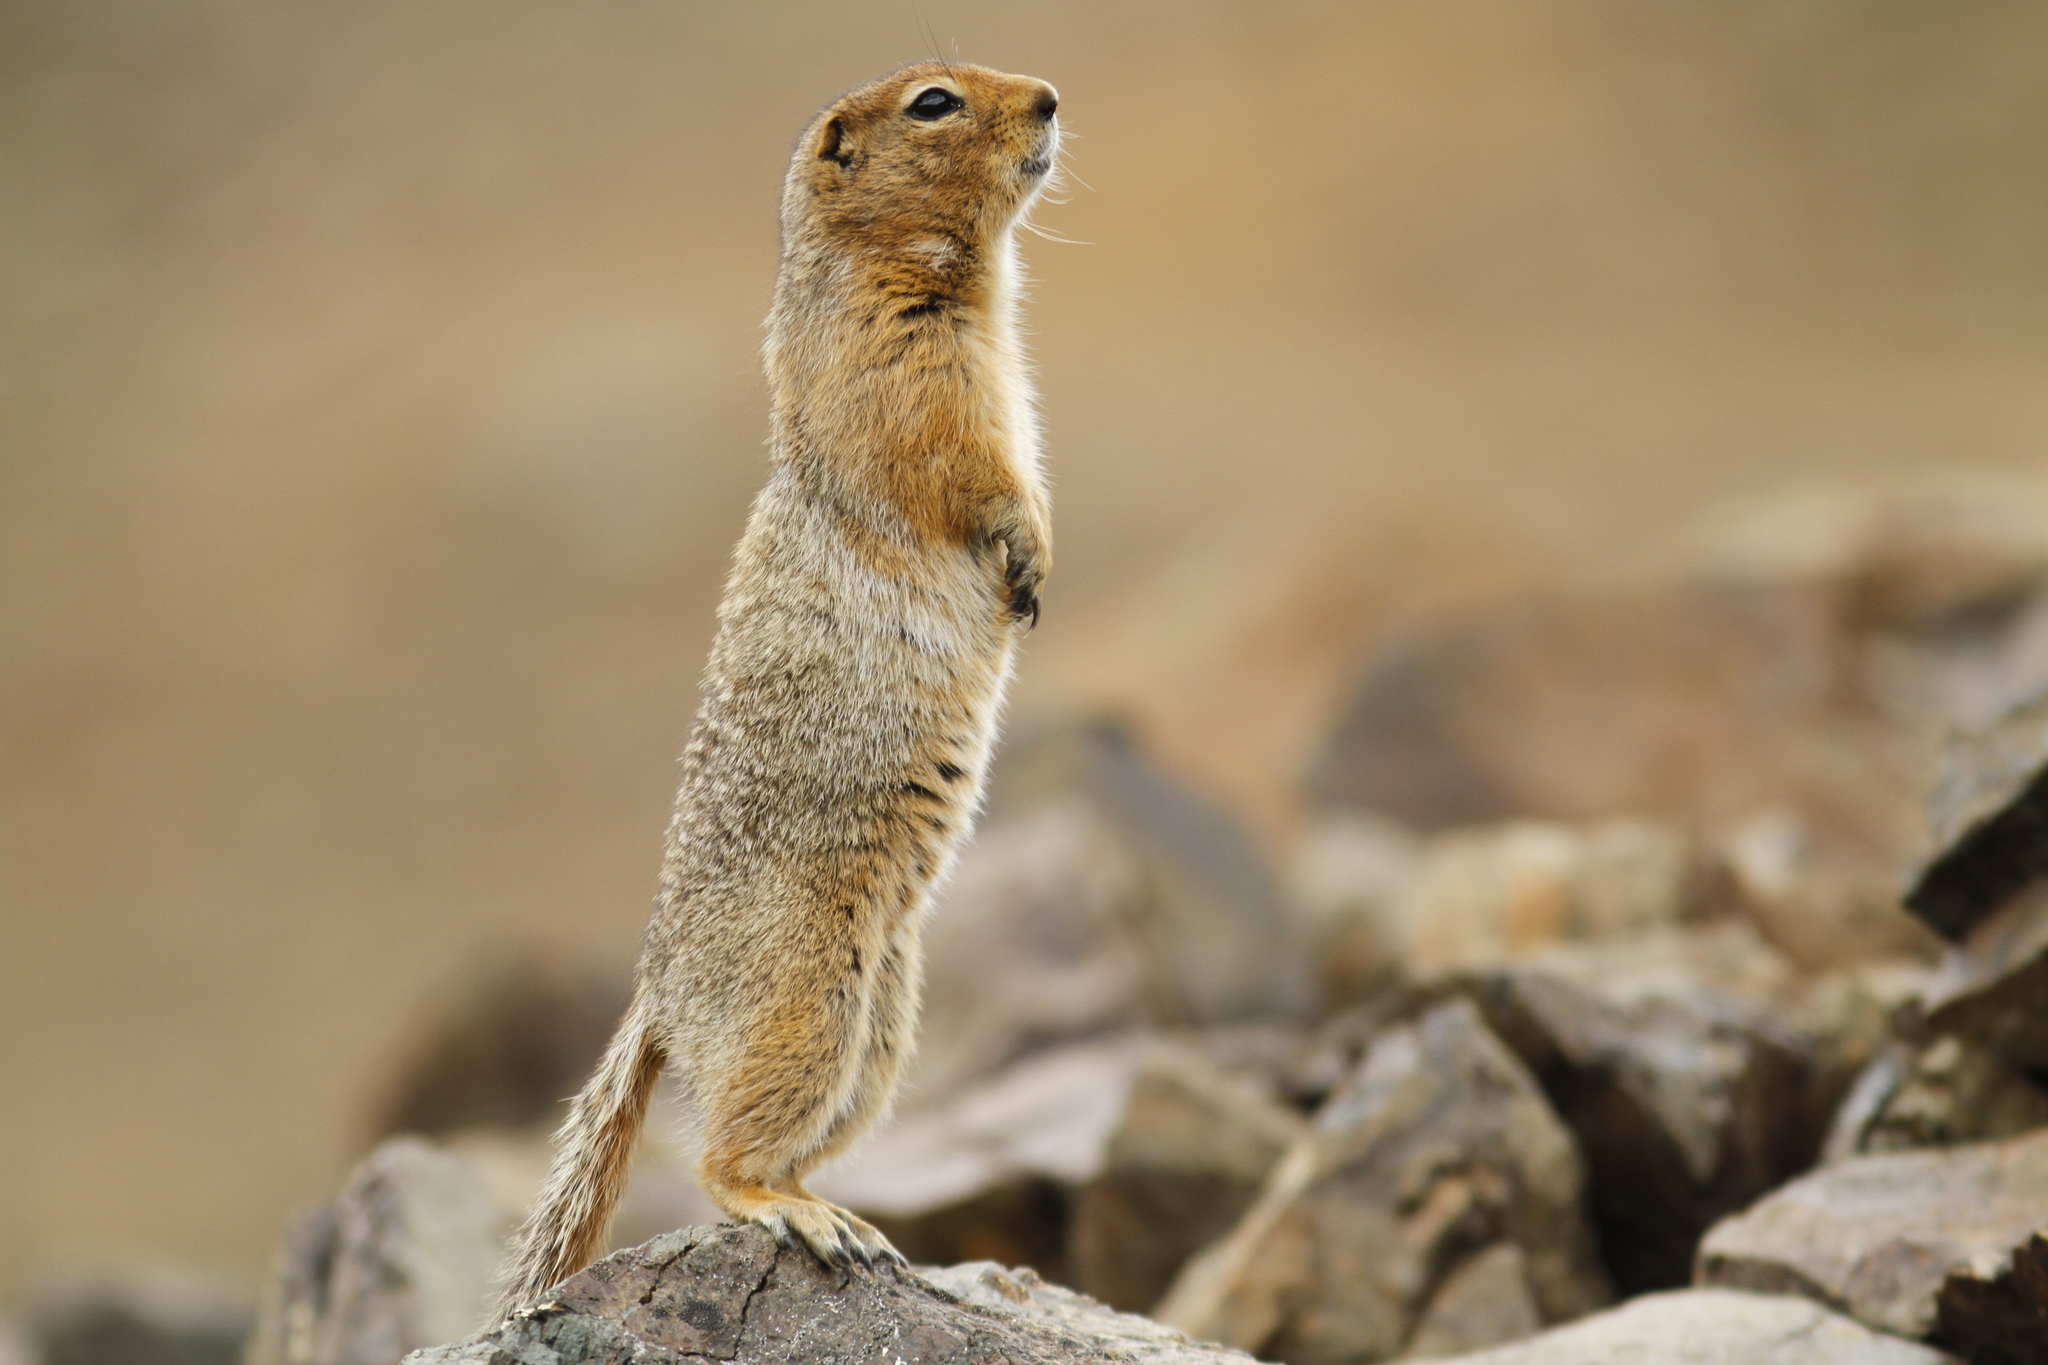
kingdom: Animalia
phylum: Chordata
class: Mammalia
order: Rodentia
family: Sciuridae
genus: Urocitellus
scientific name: Urocitellus parryii
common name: Arctic ground squirrel
